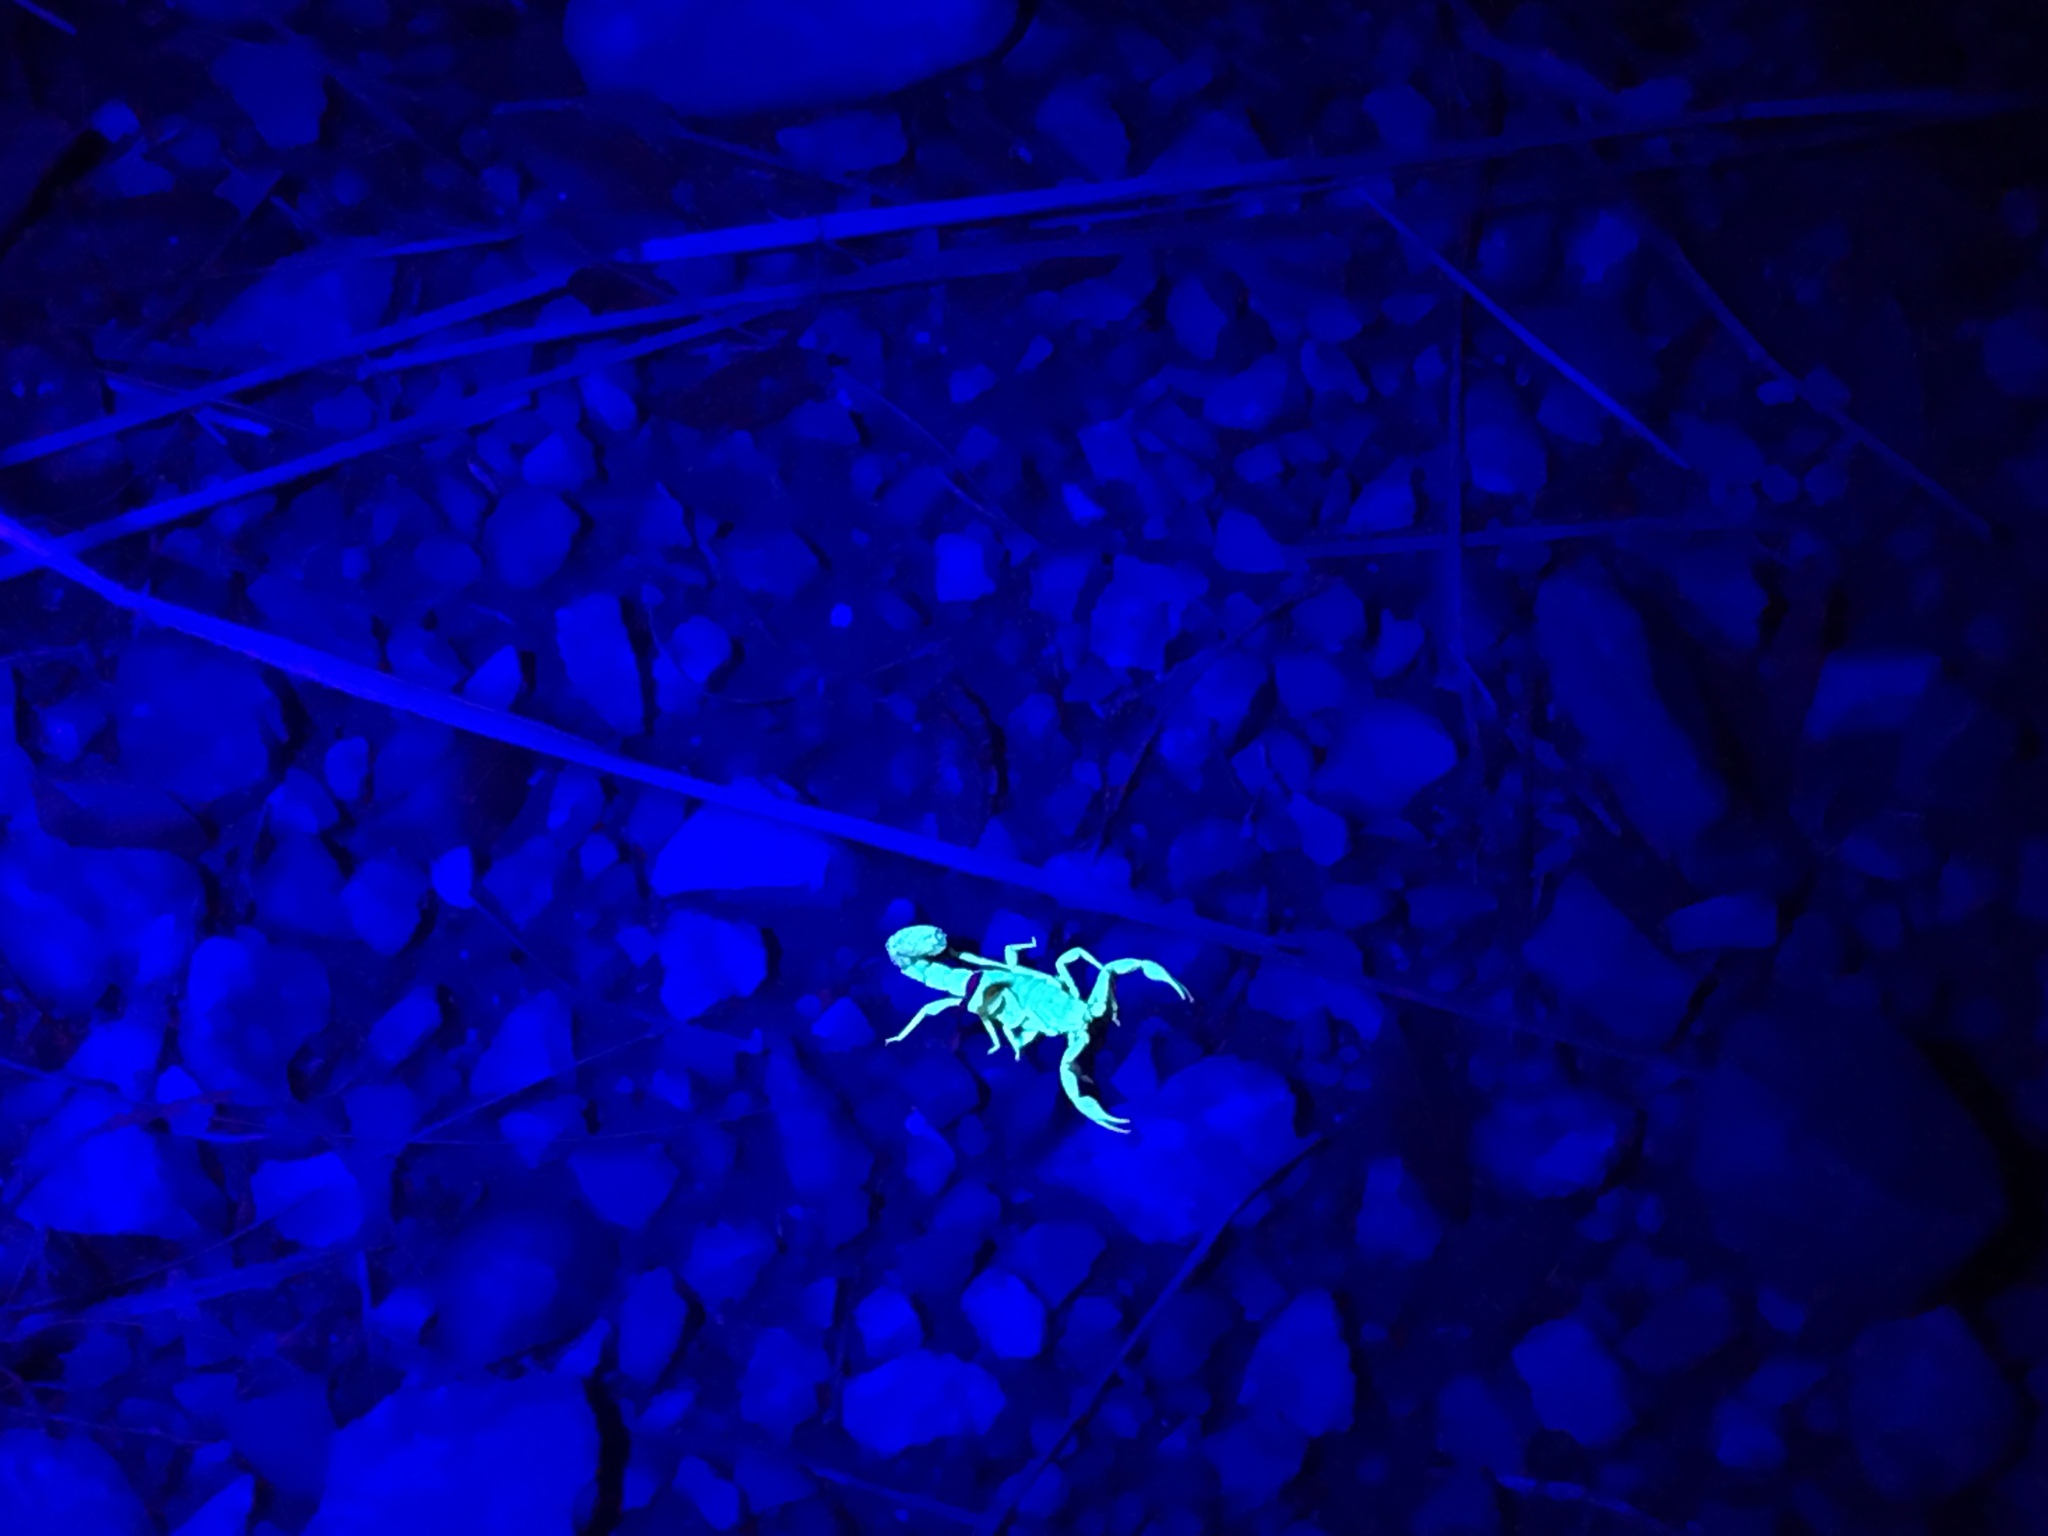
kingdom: Animalia
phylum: Arthropoda
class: Arachnida
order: Scorpiones
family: Vaejovidae
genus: Paravaejovis
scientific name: Paravaejovis spinigerus
